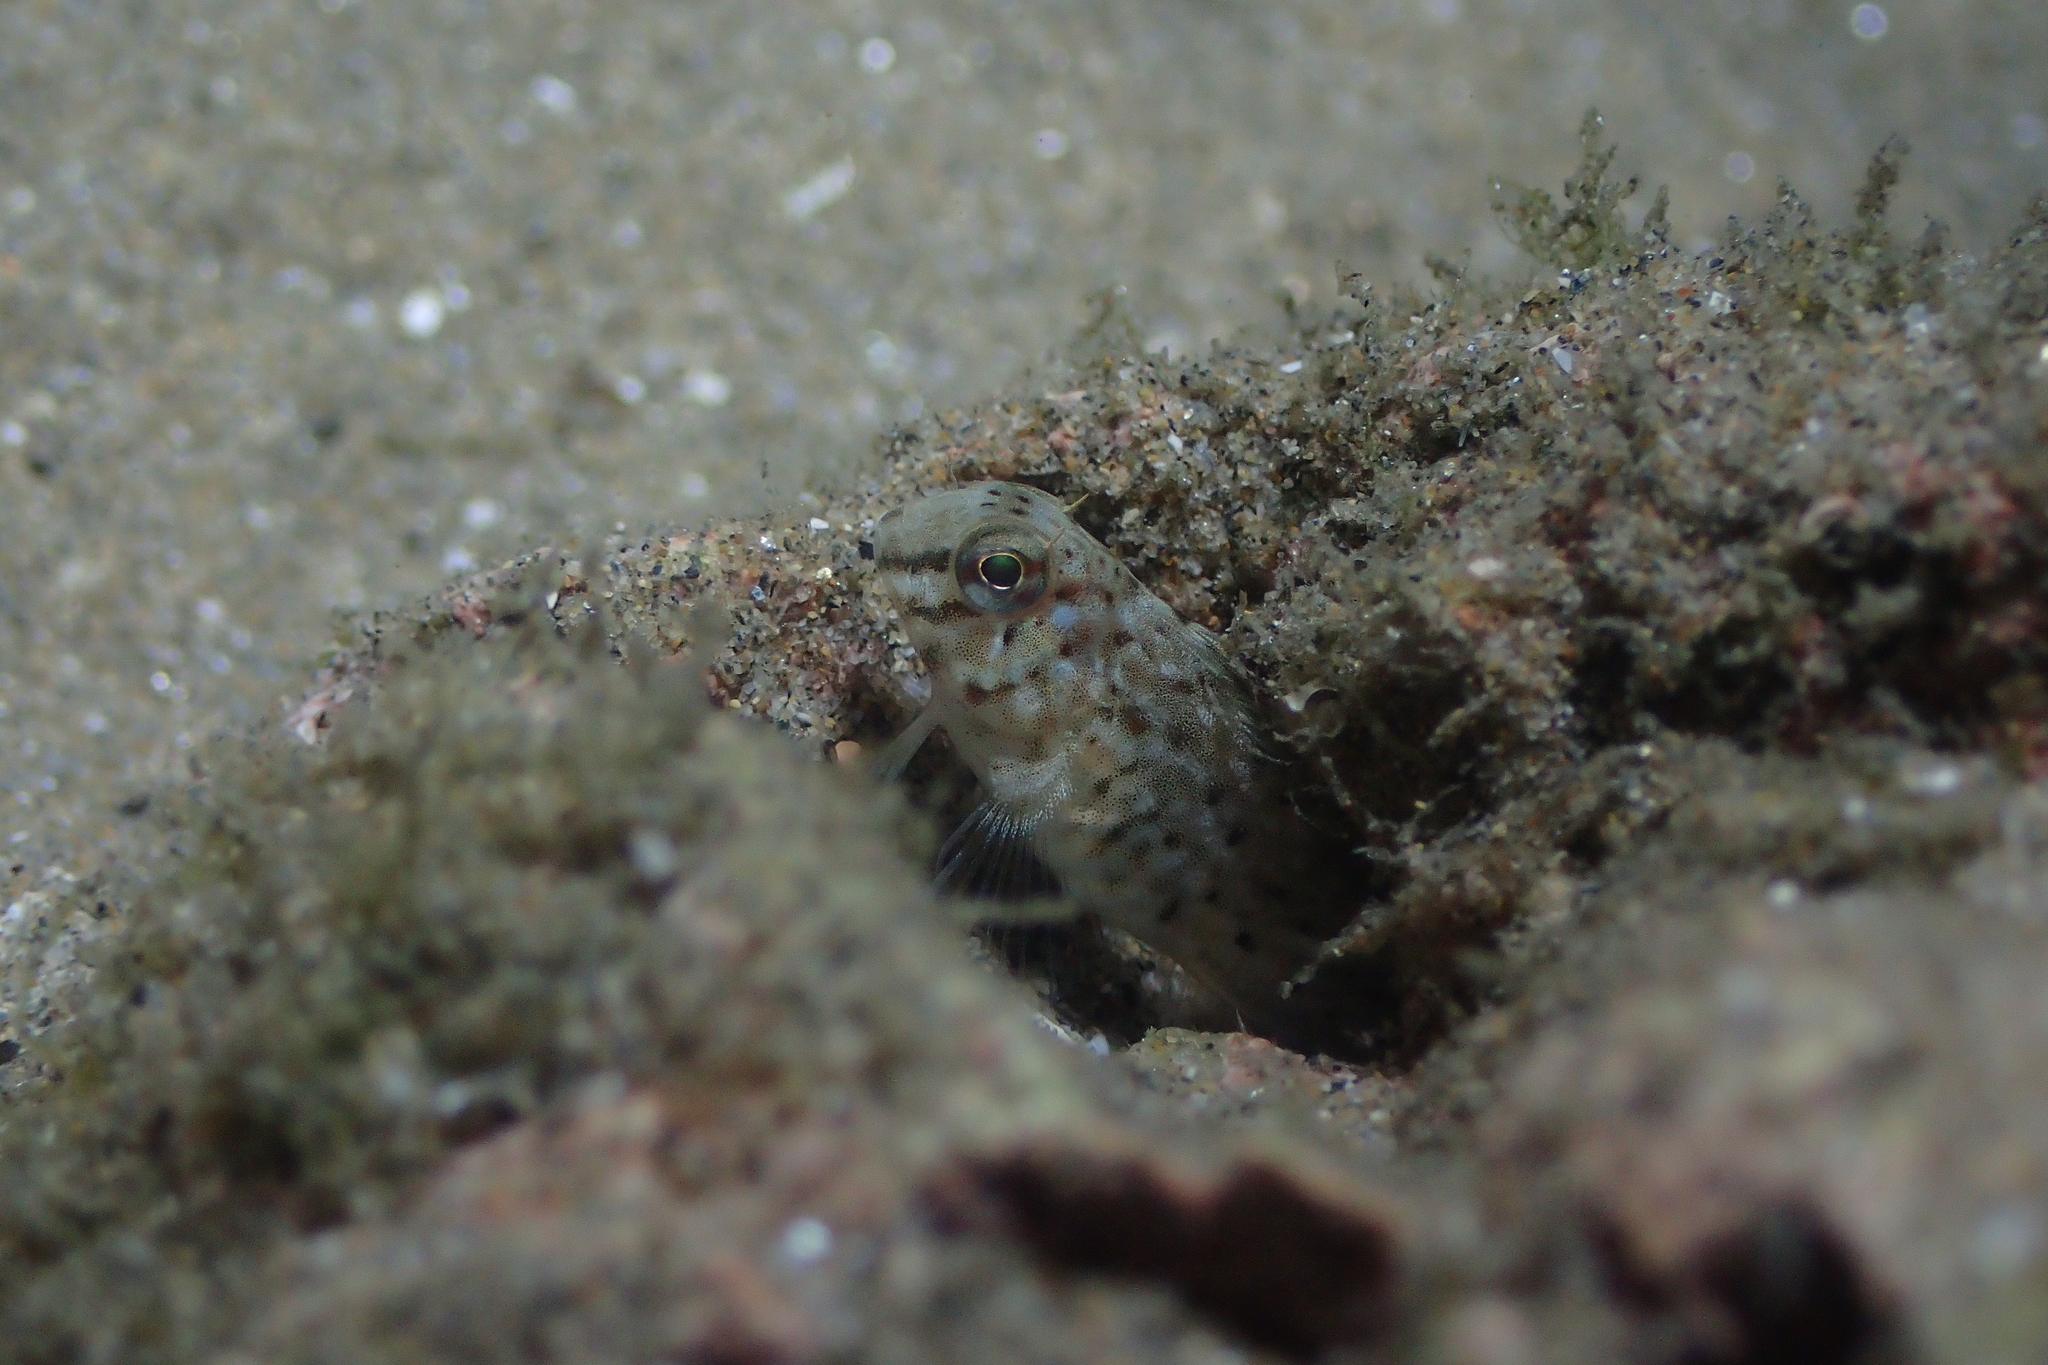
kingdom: Animalia
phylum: Chordata
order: Perciformes
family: Blenniidae
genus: Parablennius
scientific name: Parablennius sanguinolentus
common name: Black sea blenny
